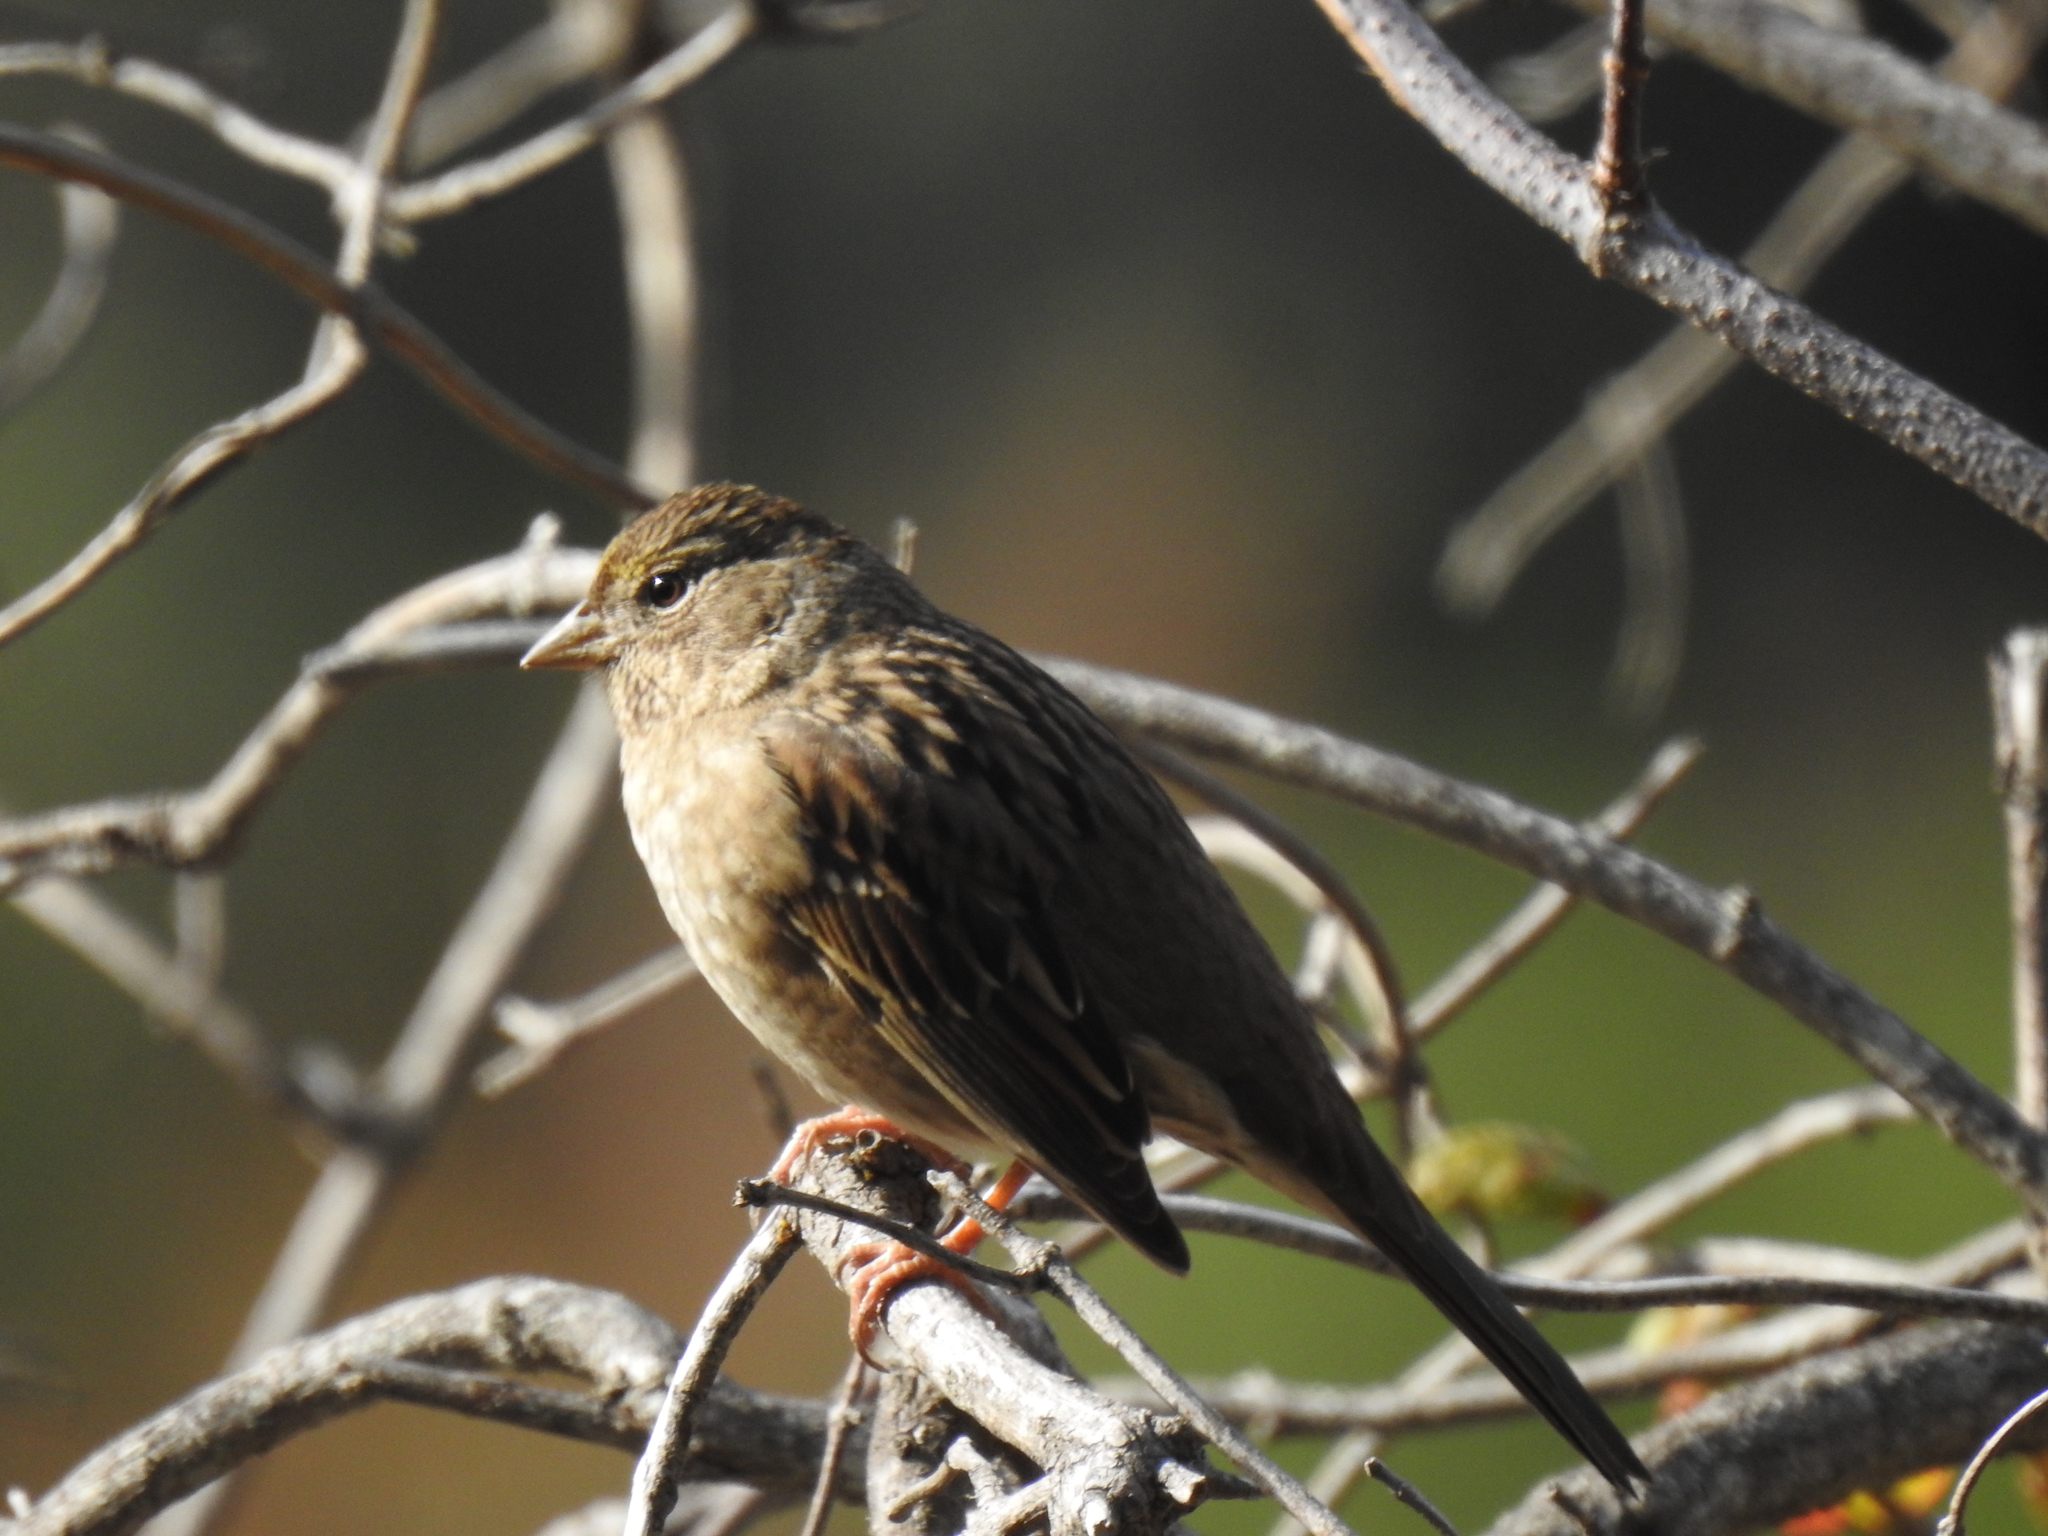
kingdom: Animalia
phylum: Chordata
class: Aves
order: Passeriformes
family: Passerellidae
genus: Zonotrichia
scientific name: Zonotrichia atricapilla
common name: Golden-crowned sparrow
